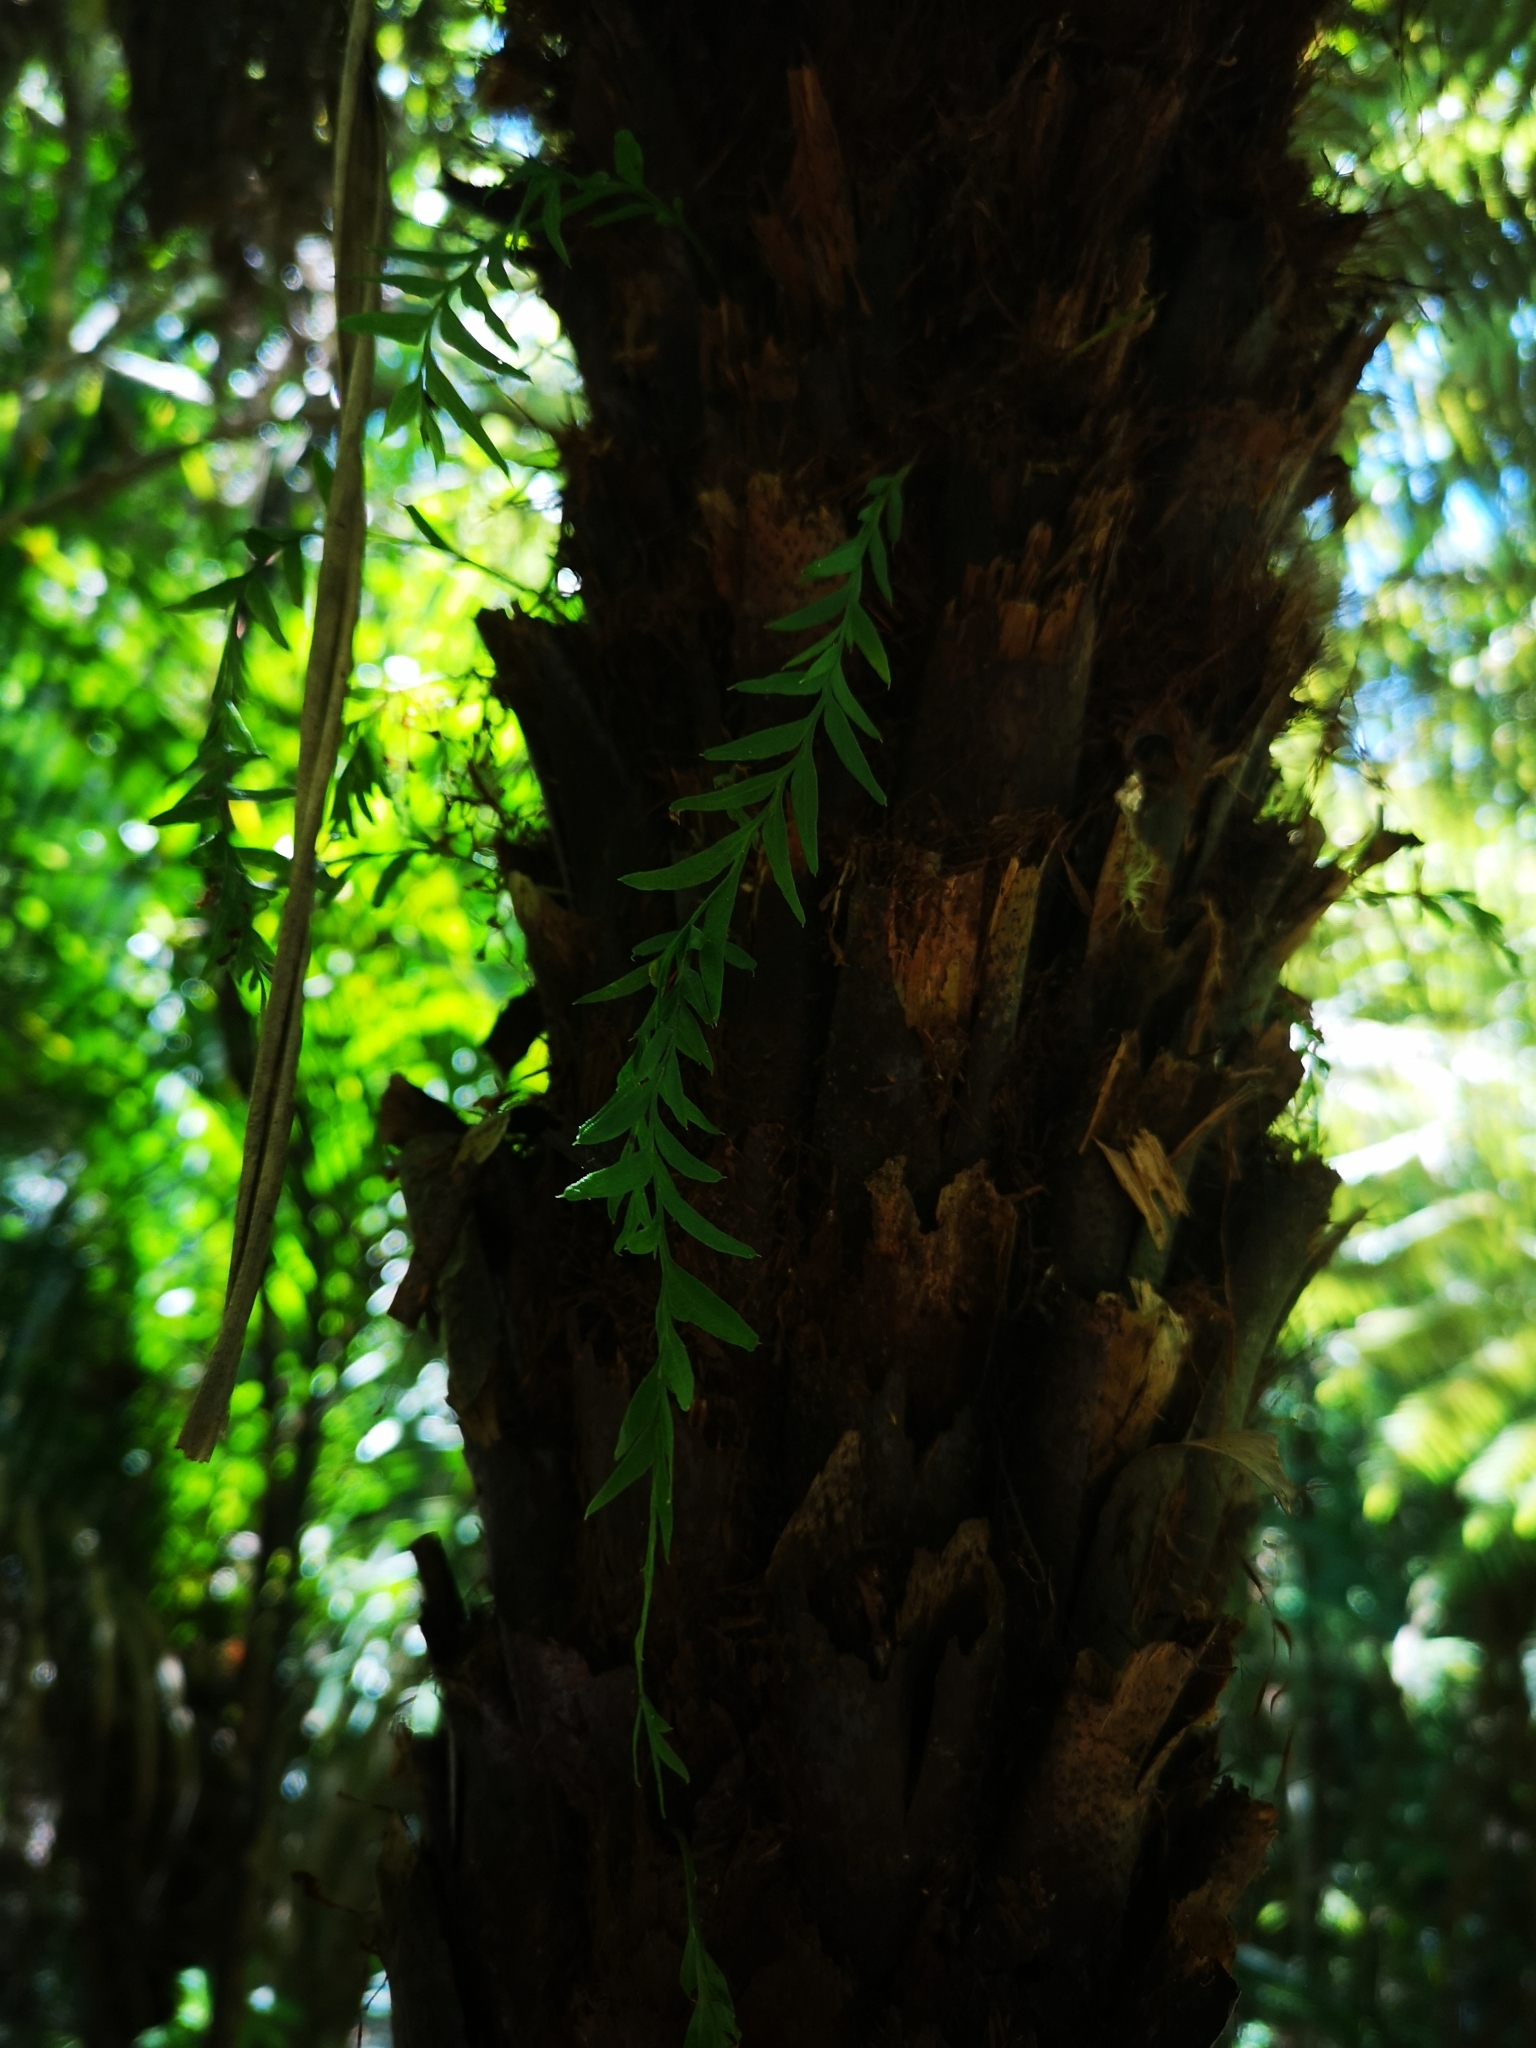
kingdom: Plantae
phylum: Tracheophyta
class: Polypodiopsida
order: Psilotales
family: Psilotaceae
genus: Tmesipteris
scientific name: Tmesipteris elongata
